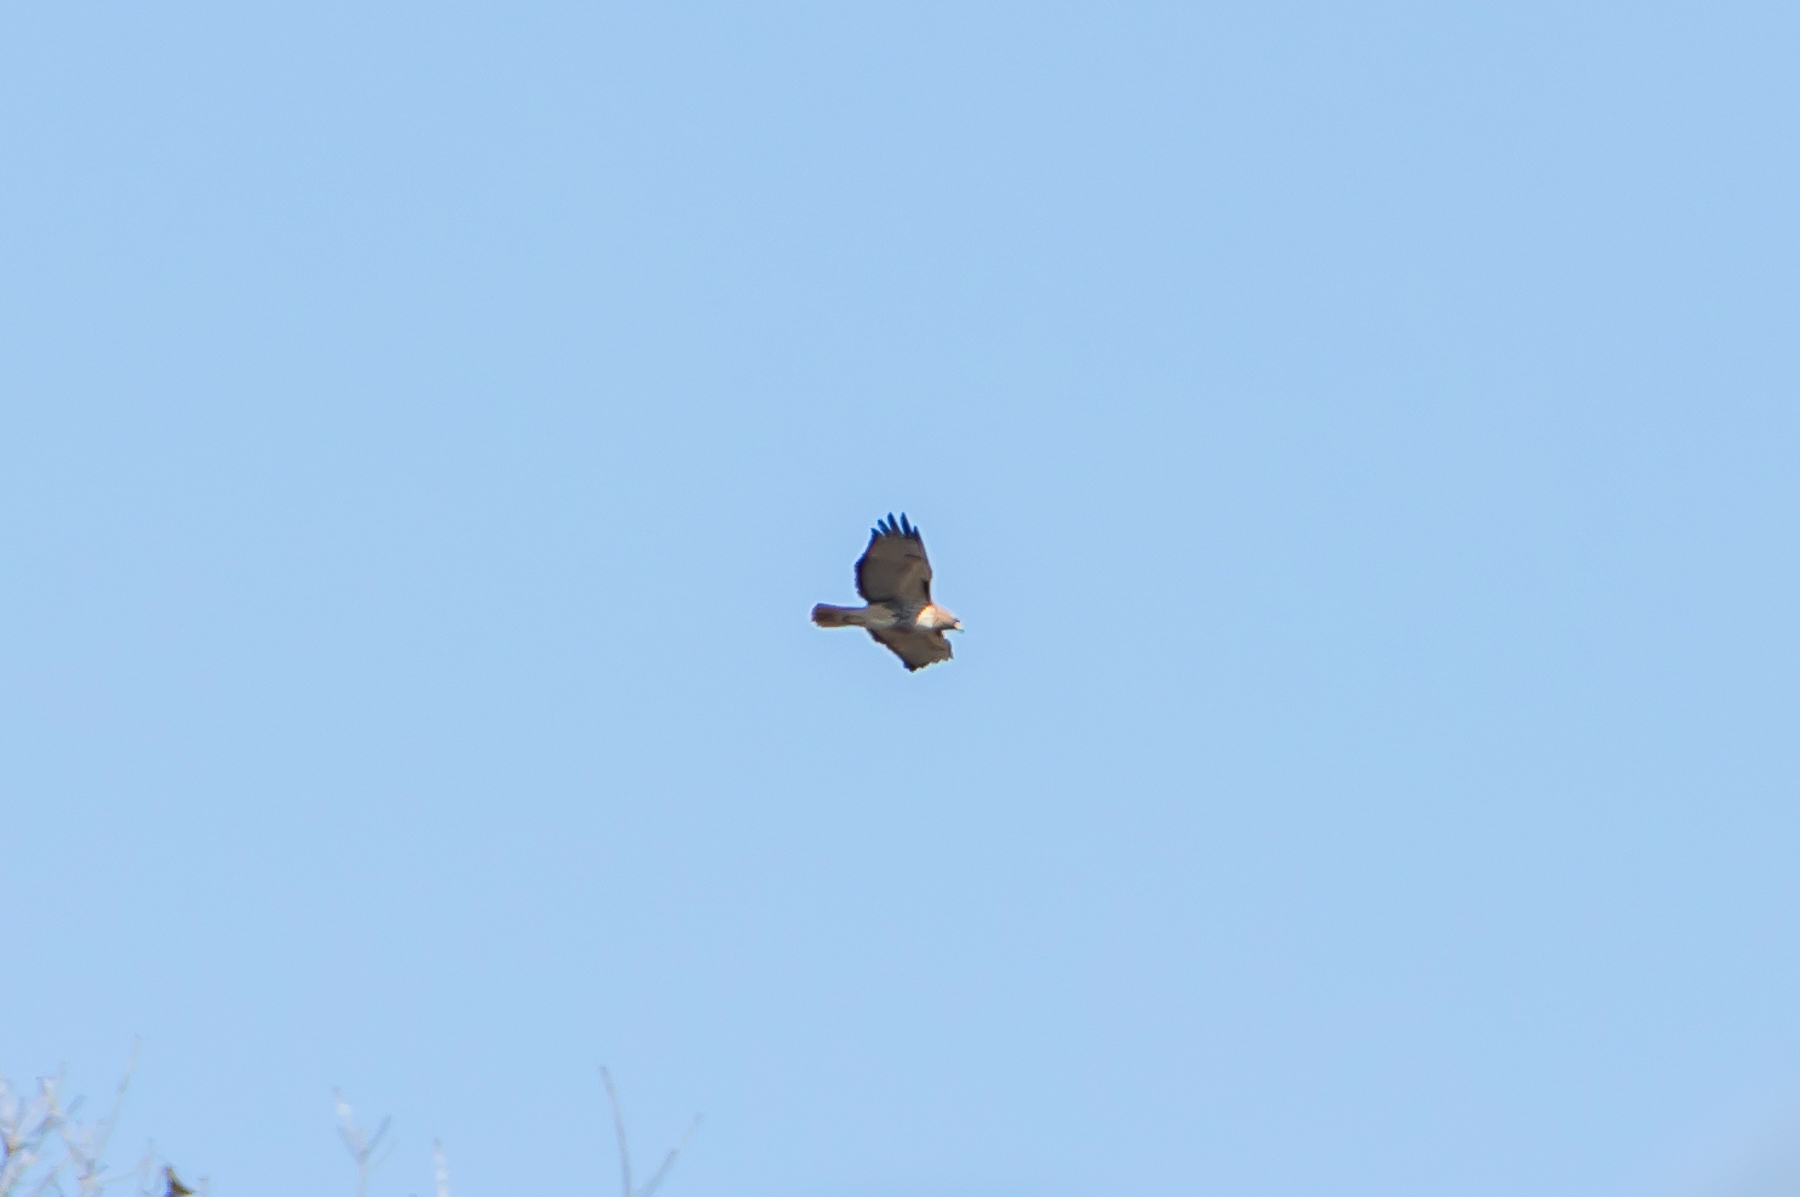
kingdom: Animalia
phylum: Chordata
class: Aves
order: Accipitriformes
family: Accipitridae
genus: Buteo
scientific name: Buteo jamaicensis
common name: Red-tailed hawk
